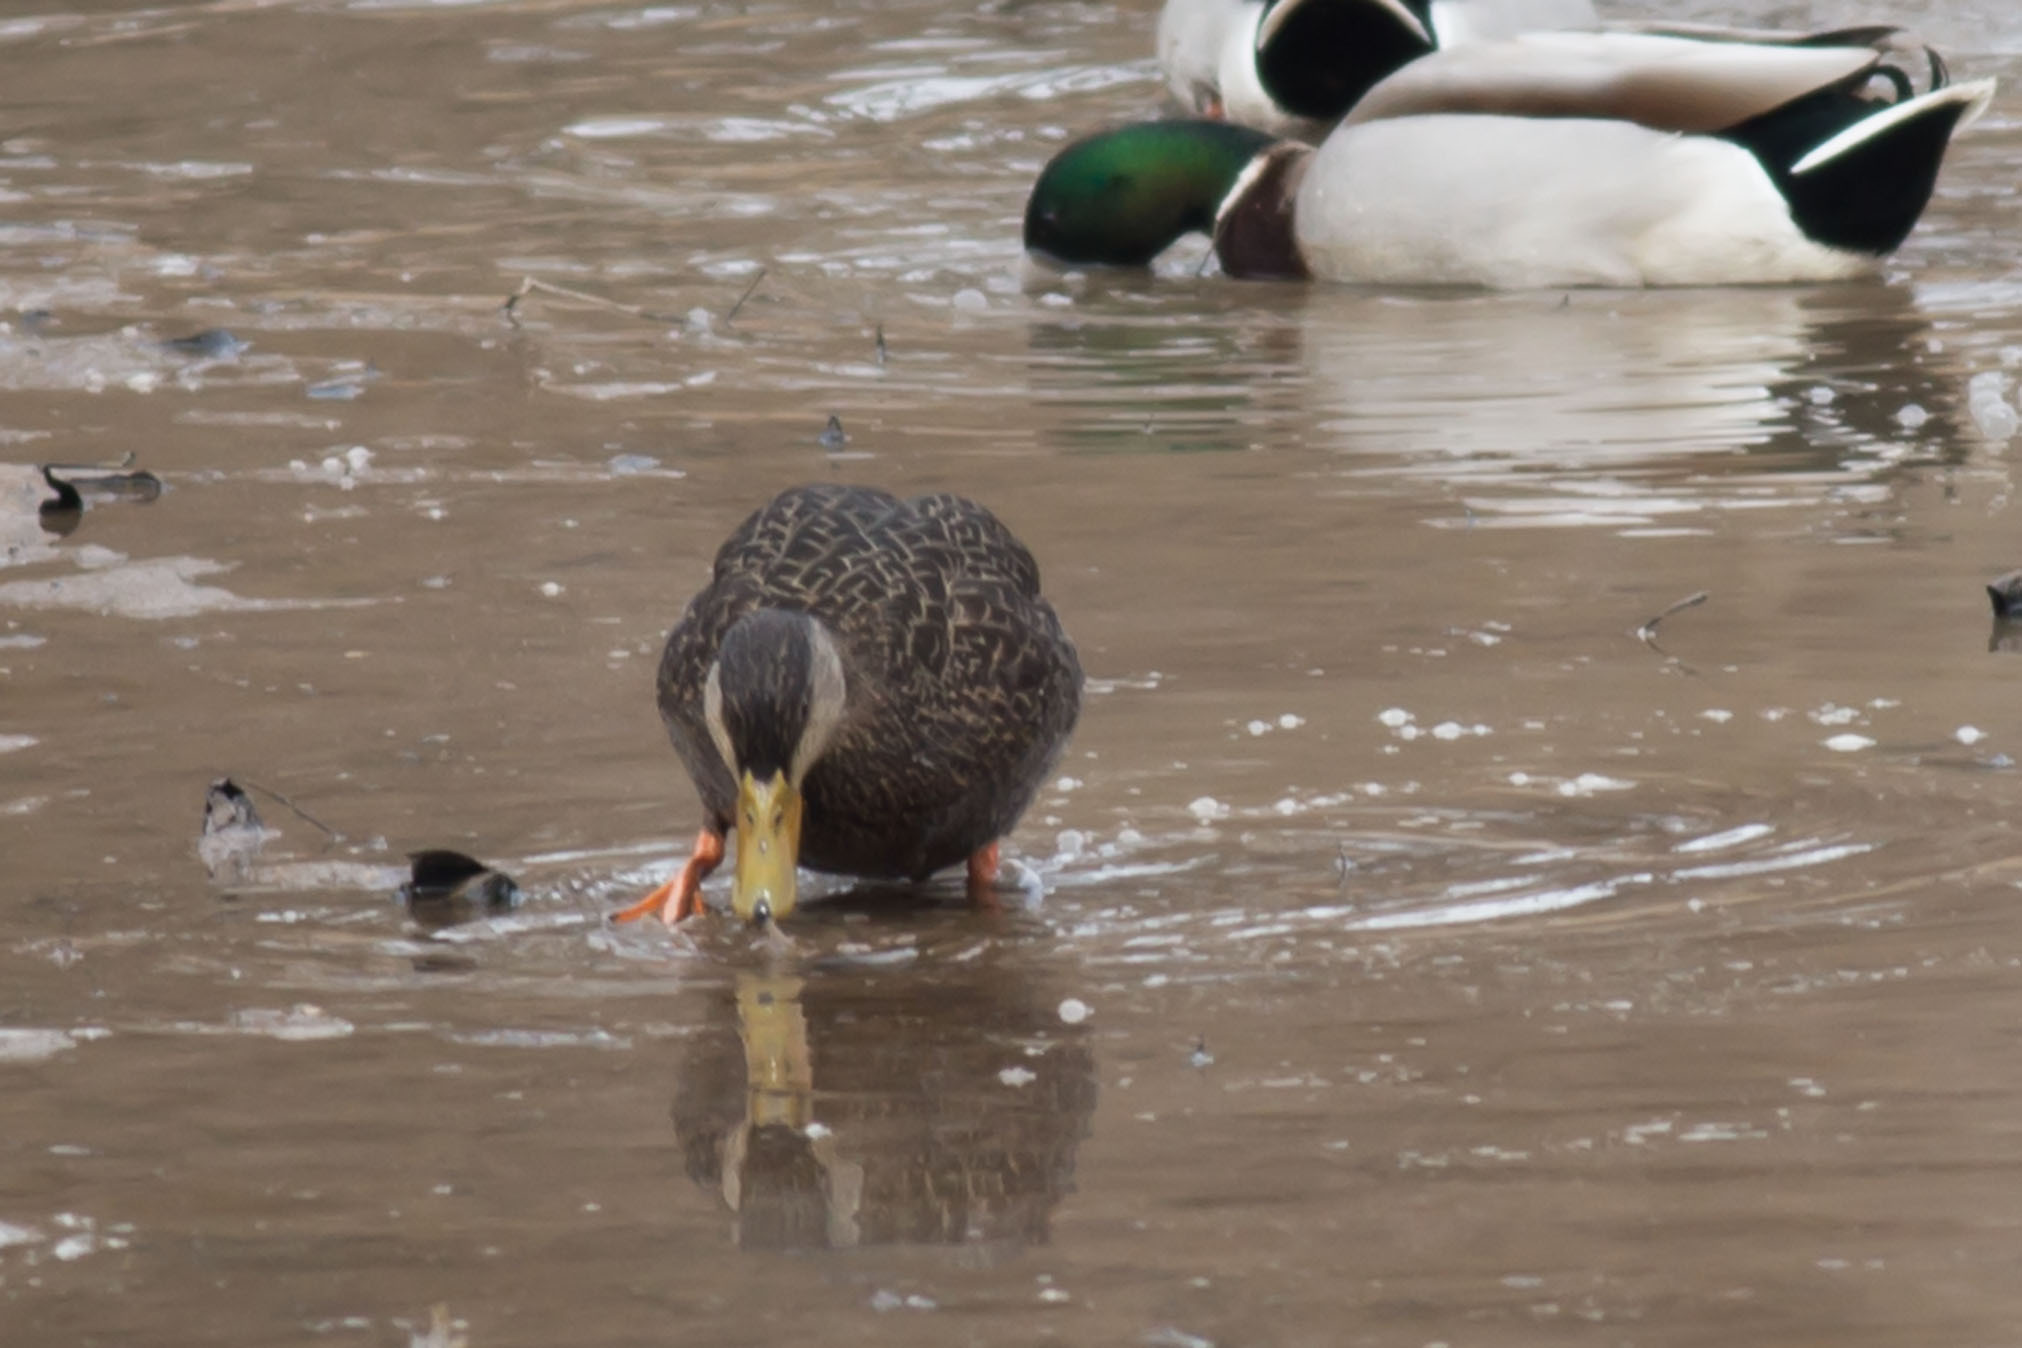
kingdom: Animalia
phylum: Chordata
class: Aves
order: Anseriformes
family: Anatidae
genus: Anas
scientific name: Anas rubripes
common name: American black duck
